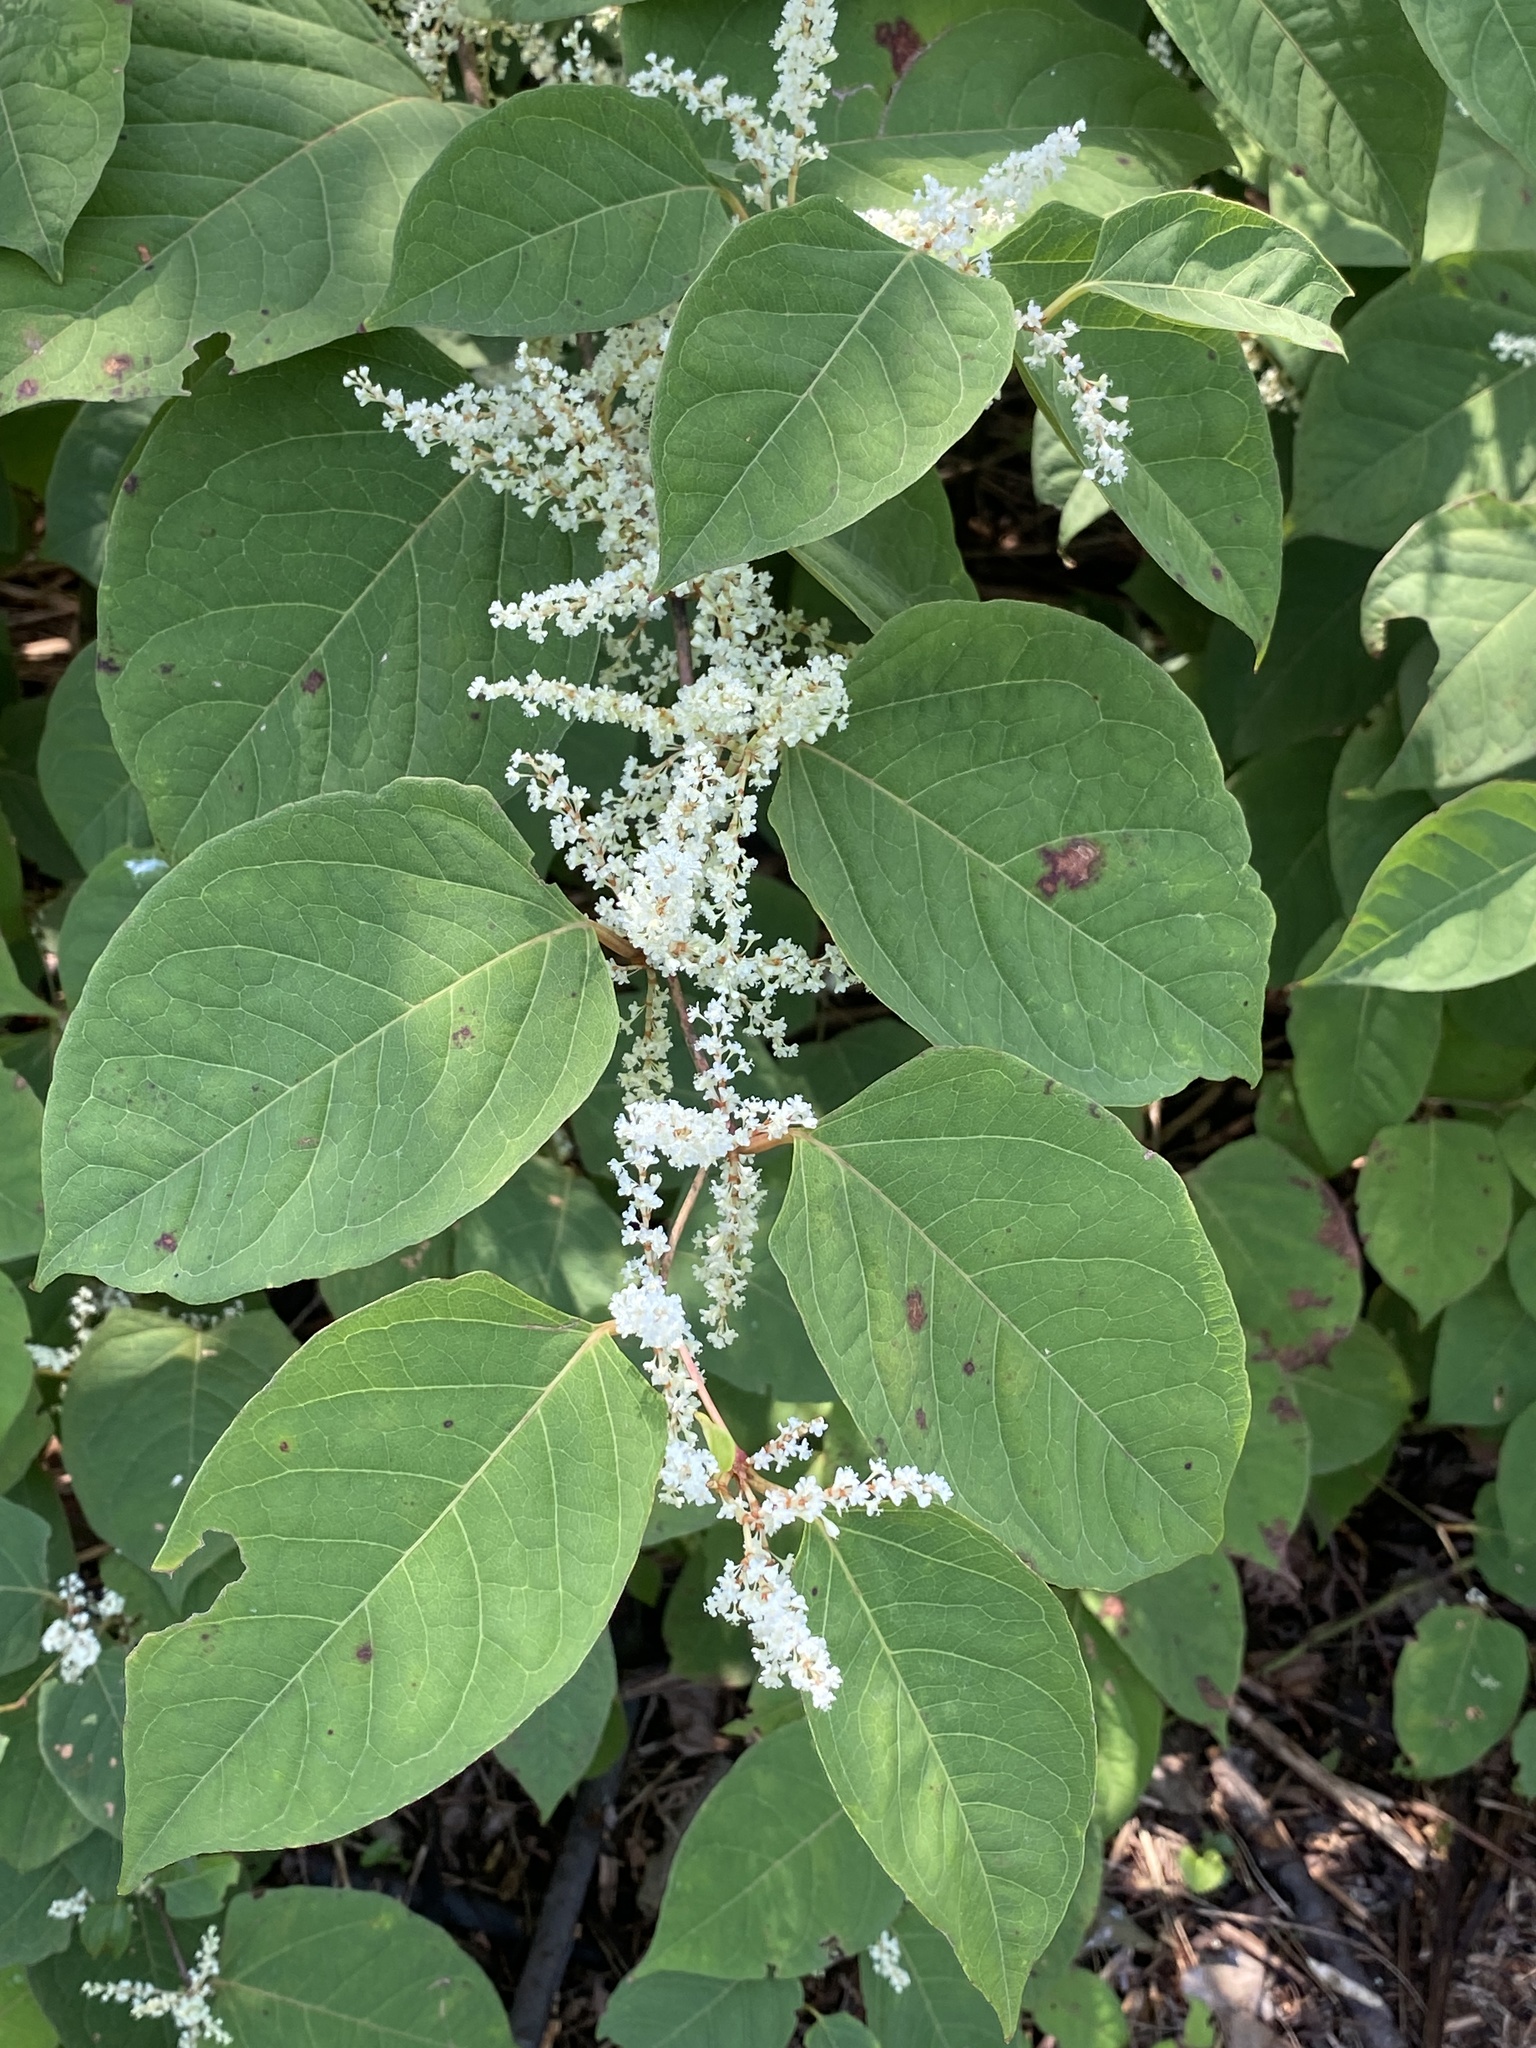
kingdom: Plantae
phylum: Tracheophyta
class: Magnoliopsida
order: Caryophyllales
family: Polygonaceae
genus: Reynoutria
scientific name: Reynoutria japonica
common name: Japanese knotweed
